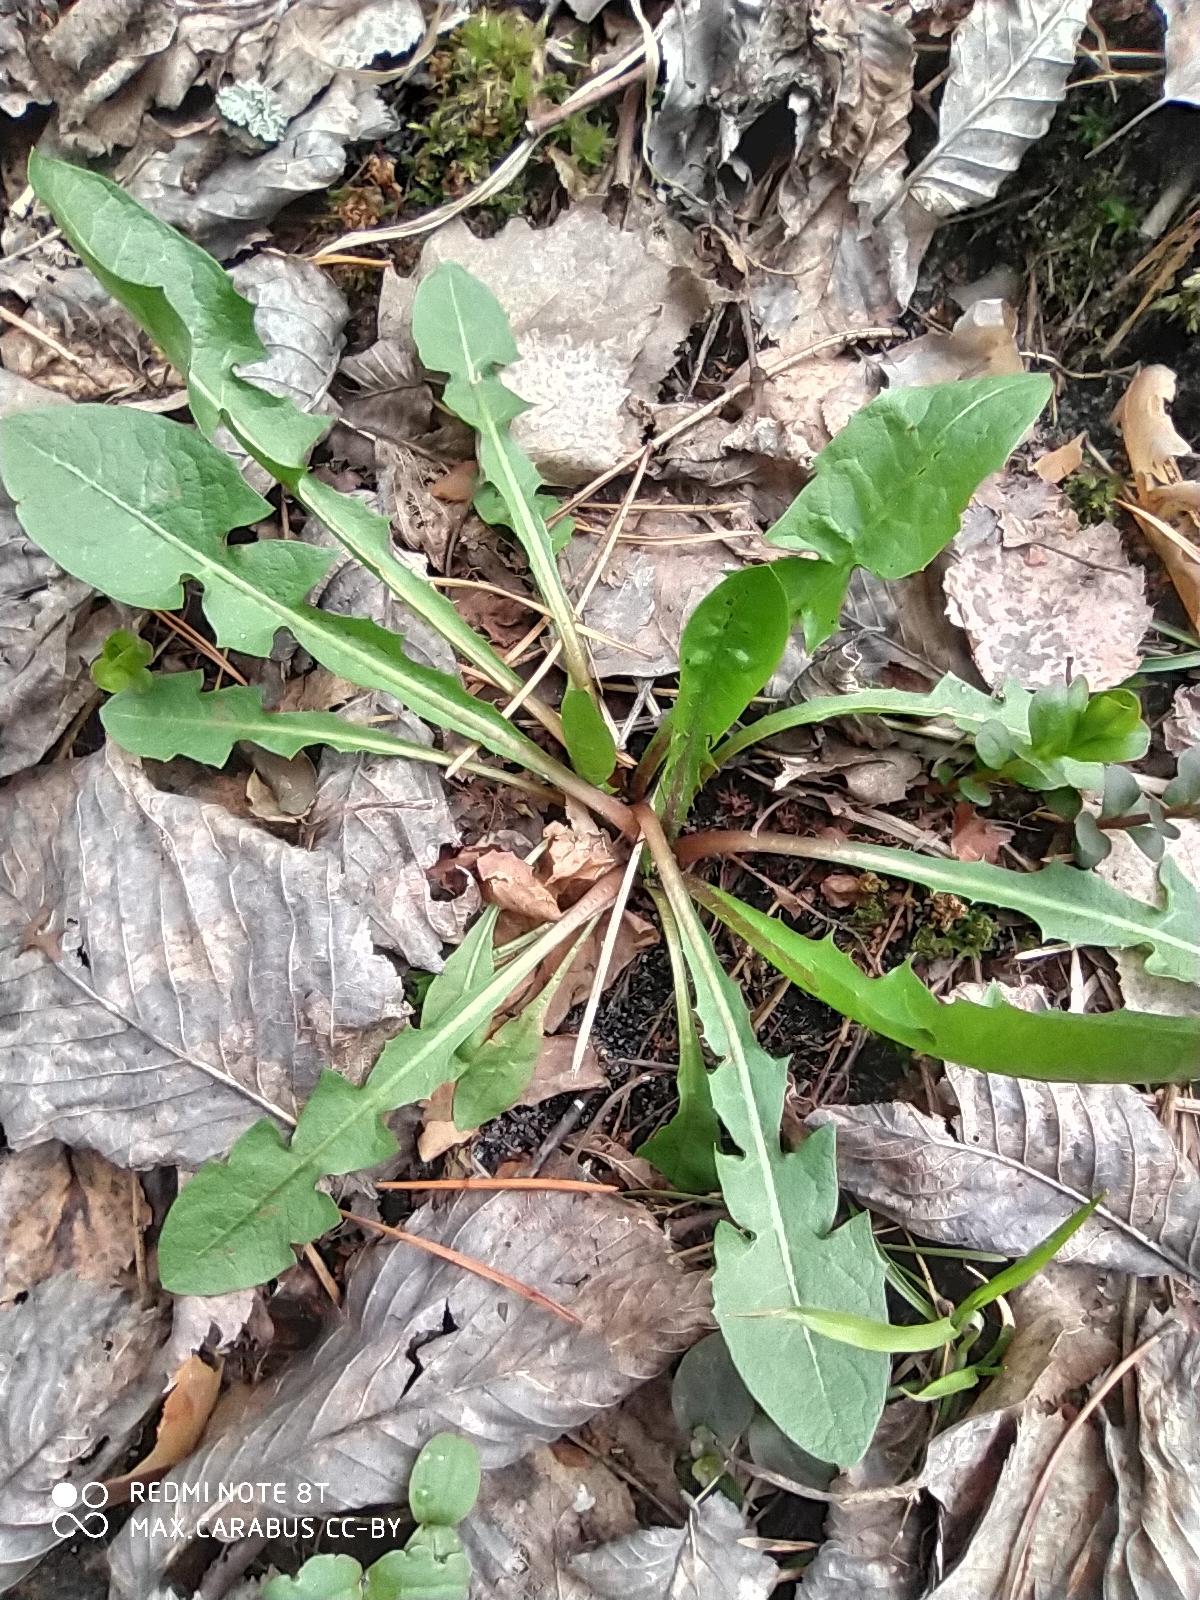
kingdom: Plantae
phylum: Tracheophyta
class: Magnoliopsida
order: Asterales
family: Asteraceae
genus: Taraxacum
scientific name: Taraxacum officinale
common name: Common dandelion
